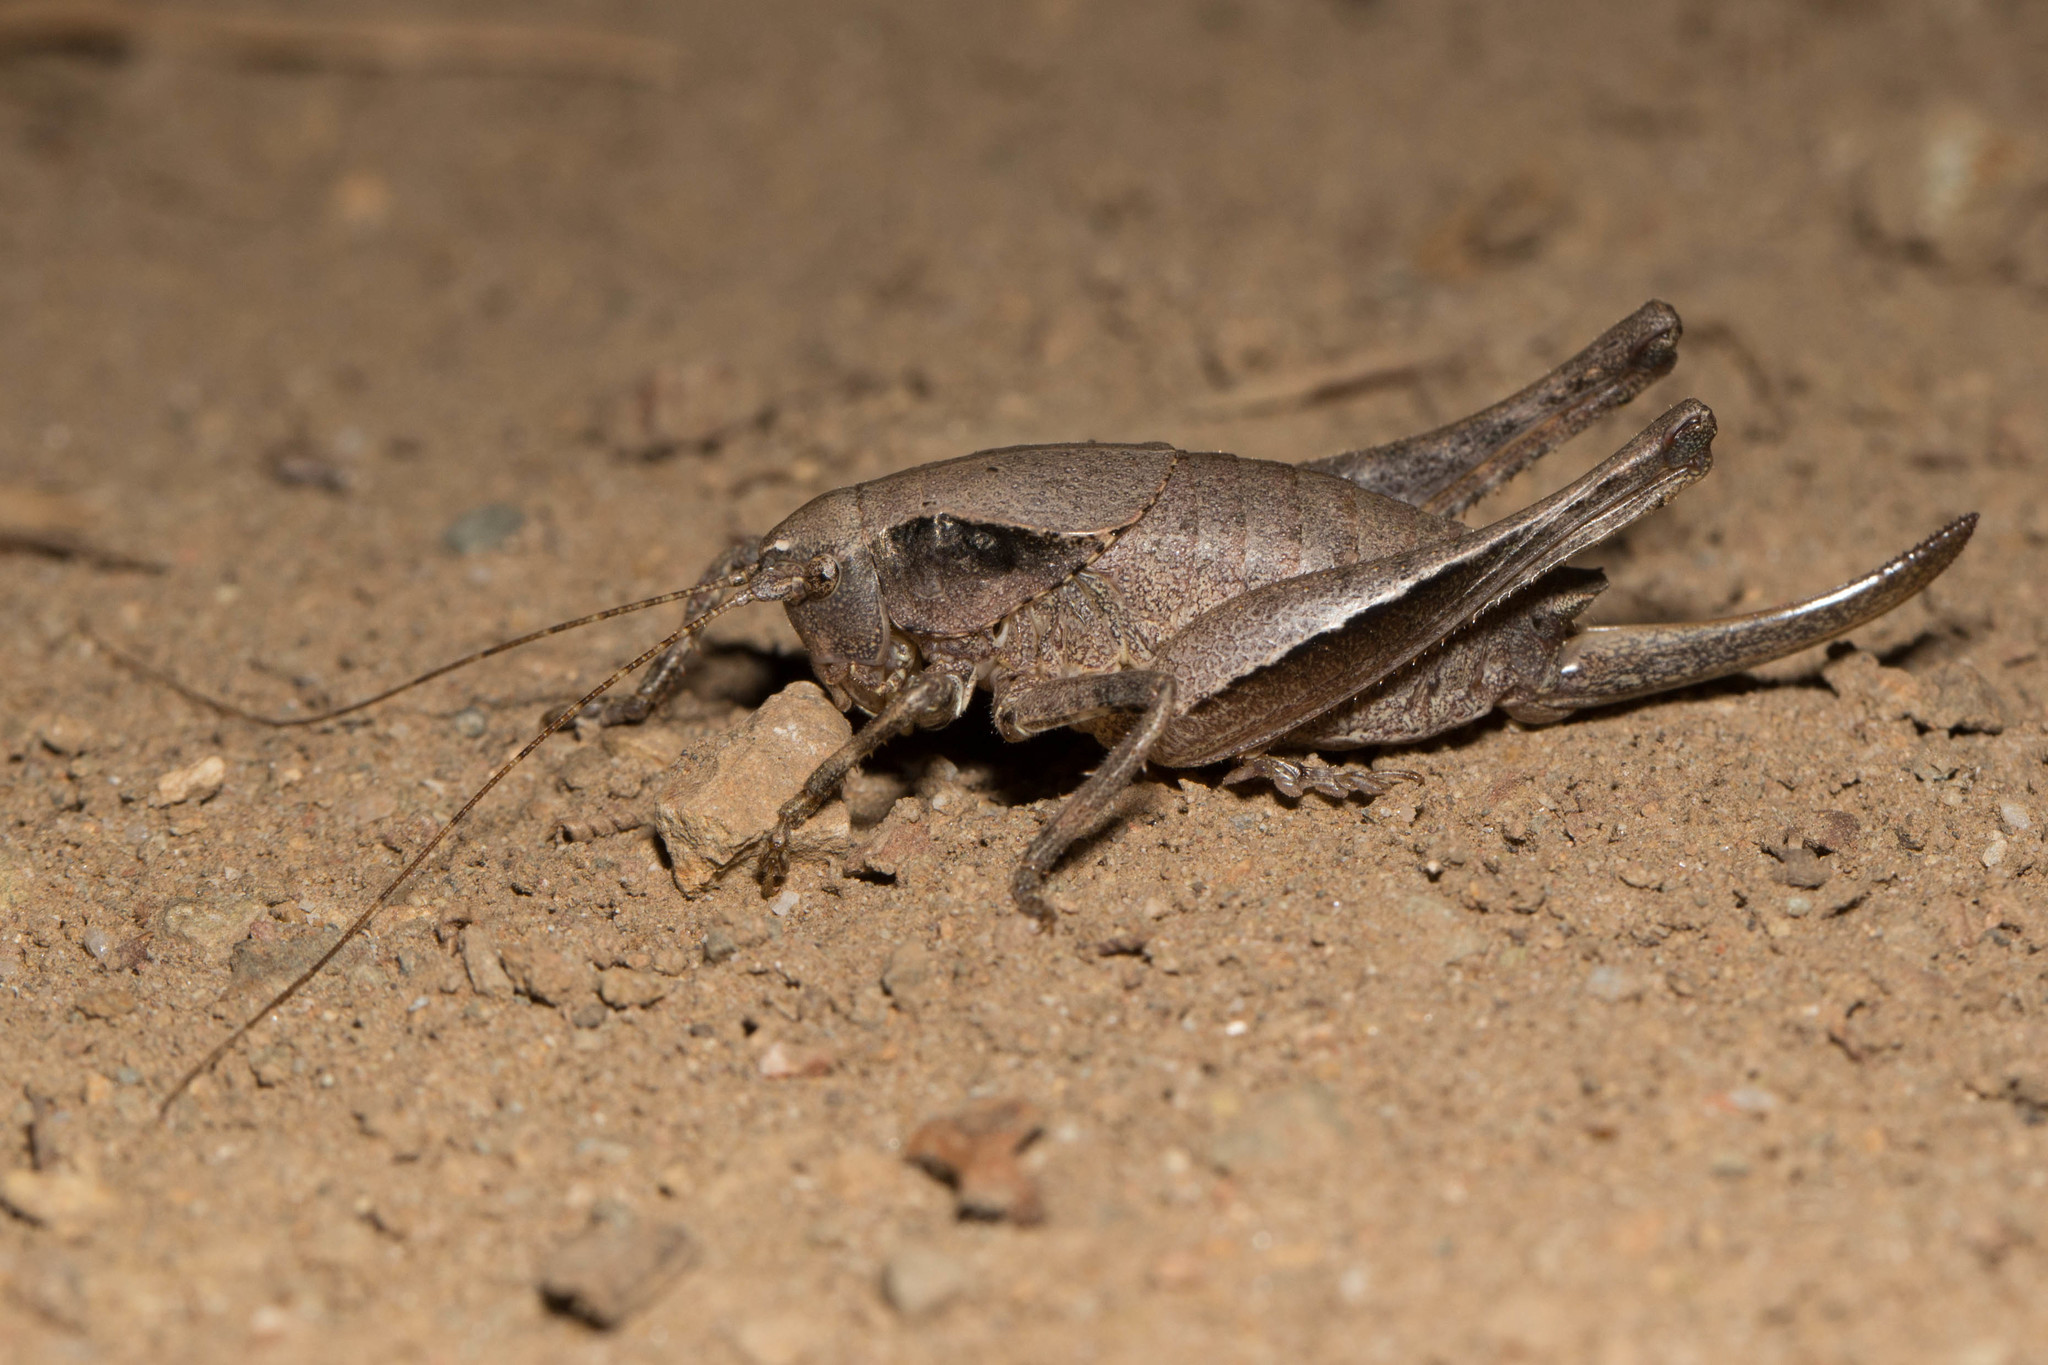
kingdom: Animalia
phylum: Arthropoda
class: Insecta
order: Orthoptera
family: Tettigoniidae
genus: Aglaothorax
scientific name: Aglaothorax morsei
